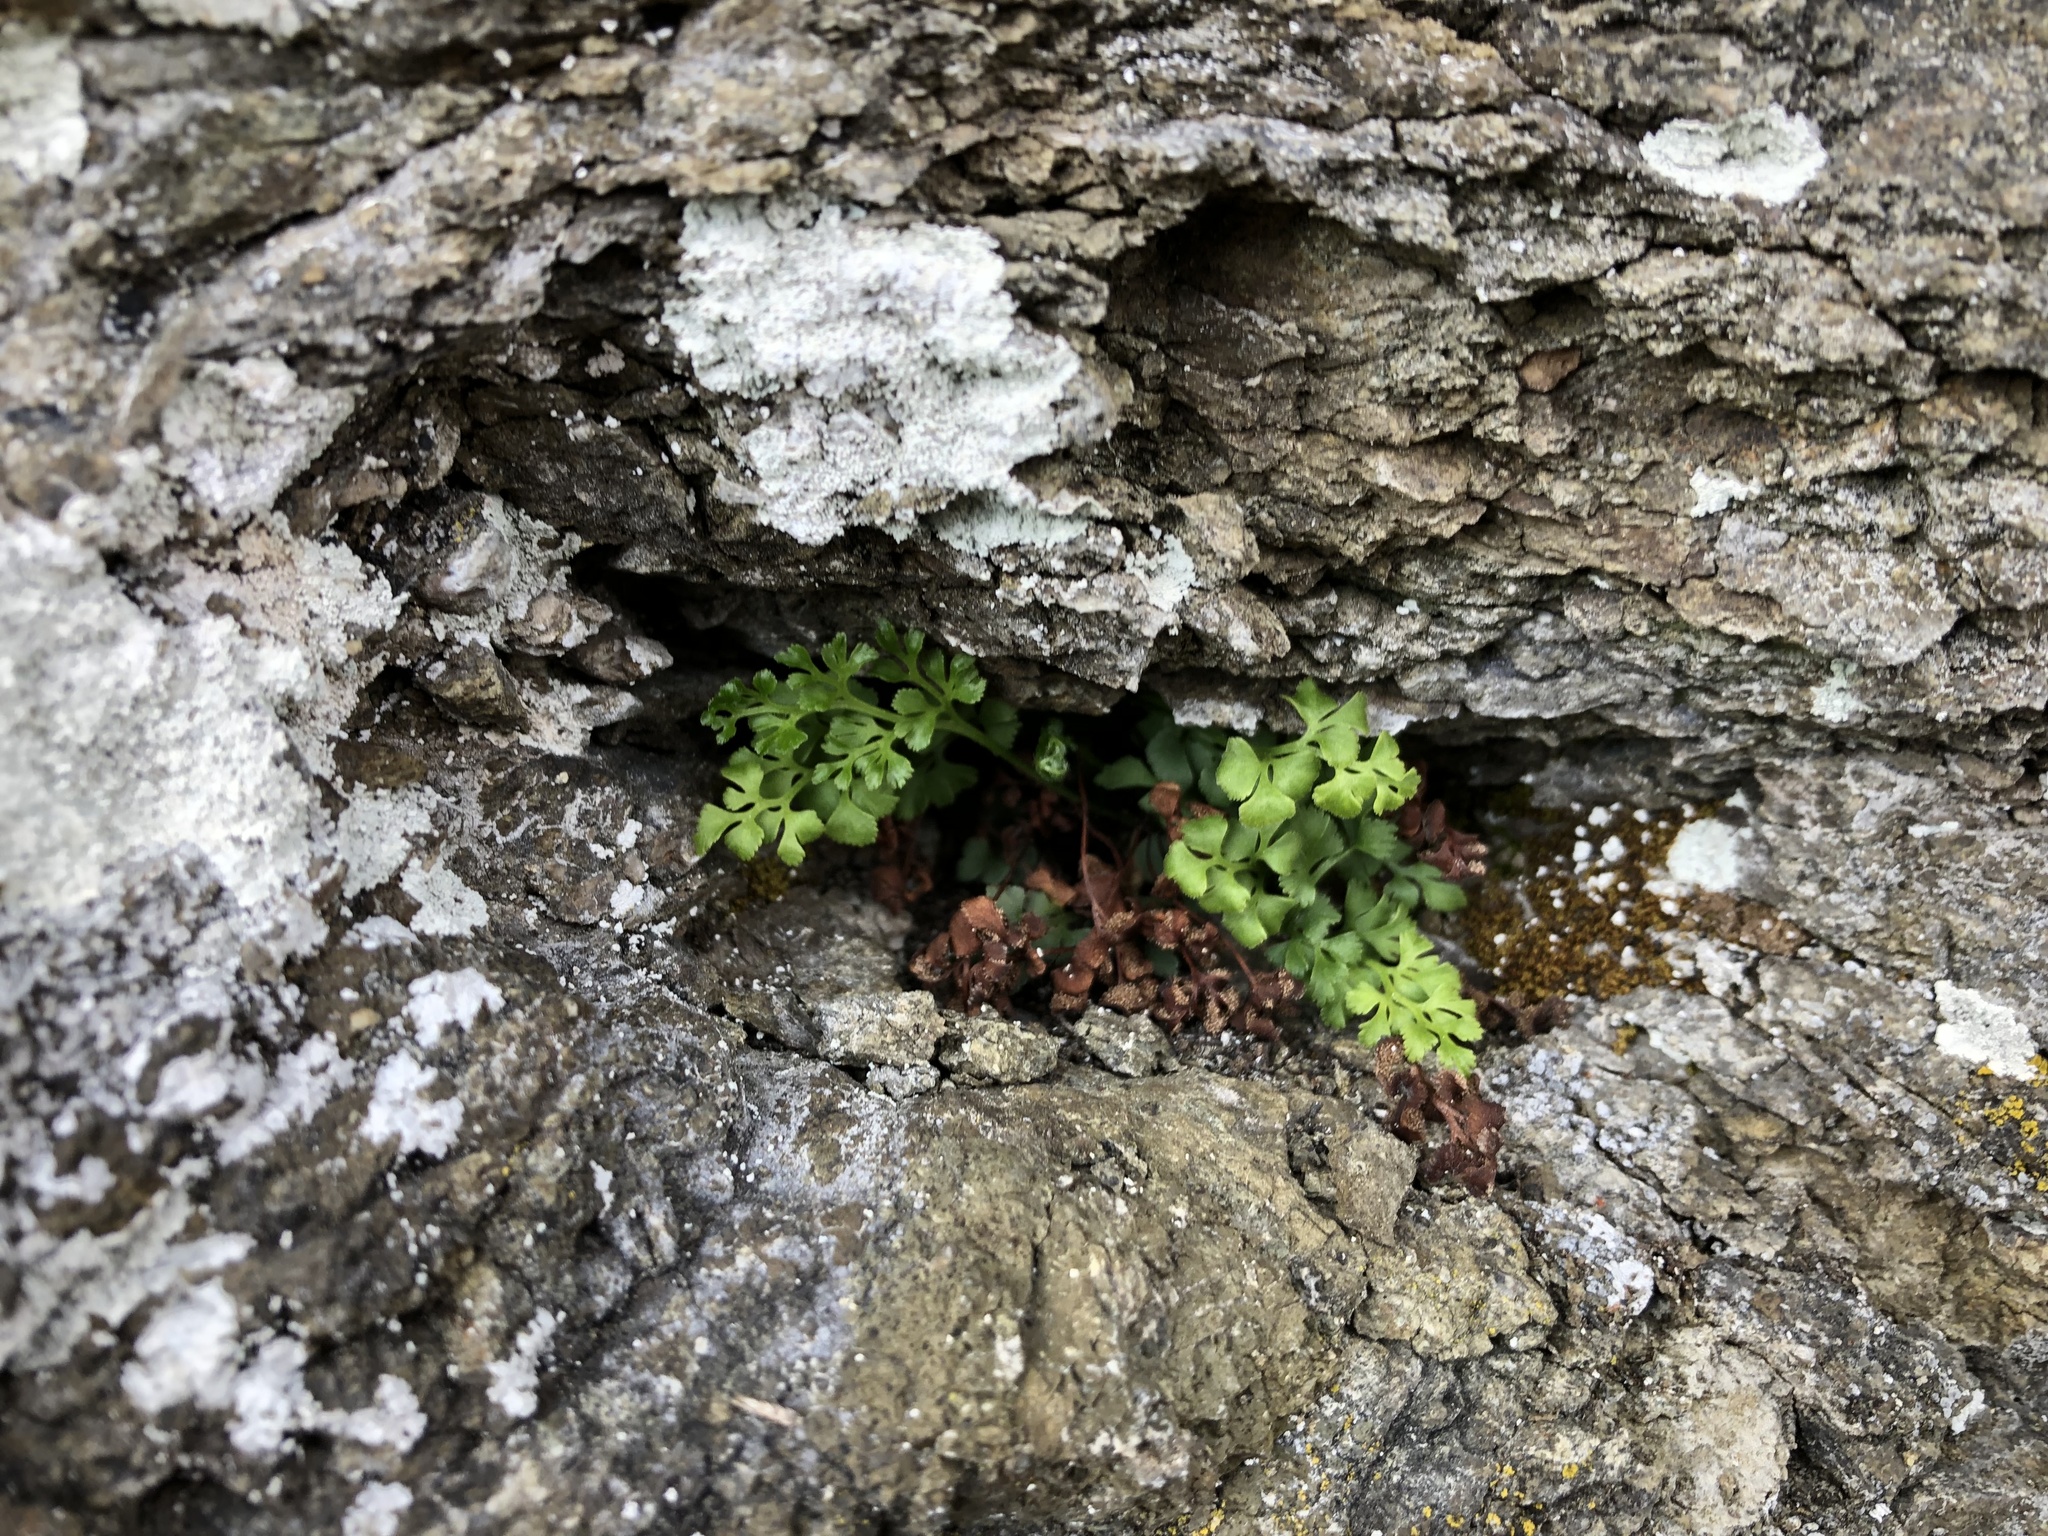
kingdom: Plantae
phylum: Tracheophyta
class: Polypodiopsida
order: Polypodiales
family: Aspleniaceae
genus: Asplenium
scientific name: Asplenium ruta-muraria
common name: Wall-rue
